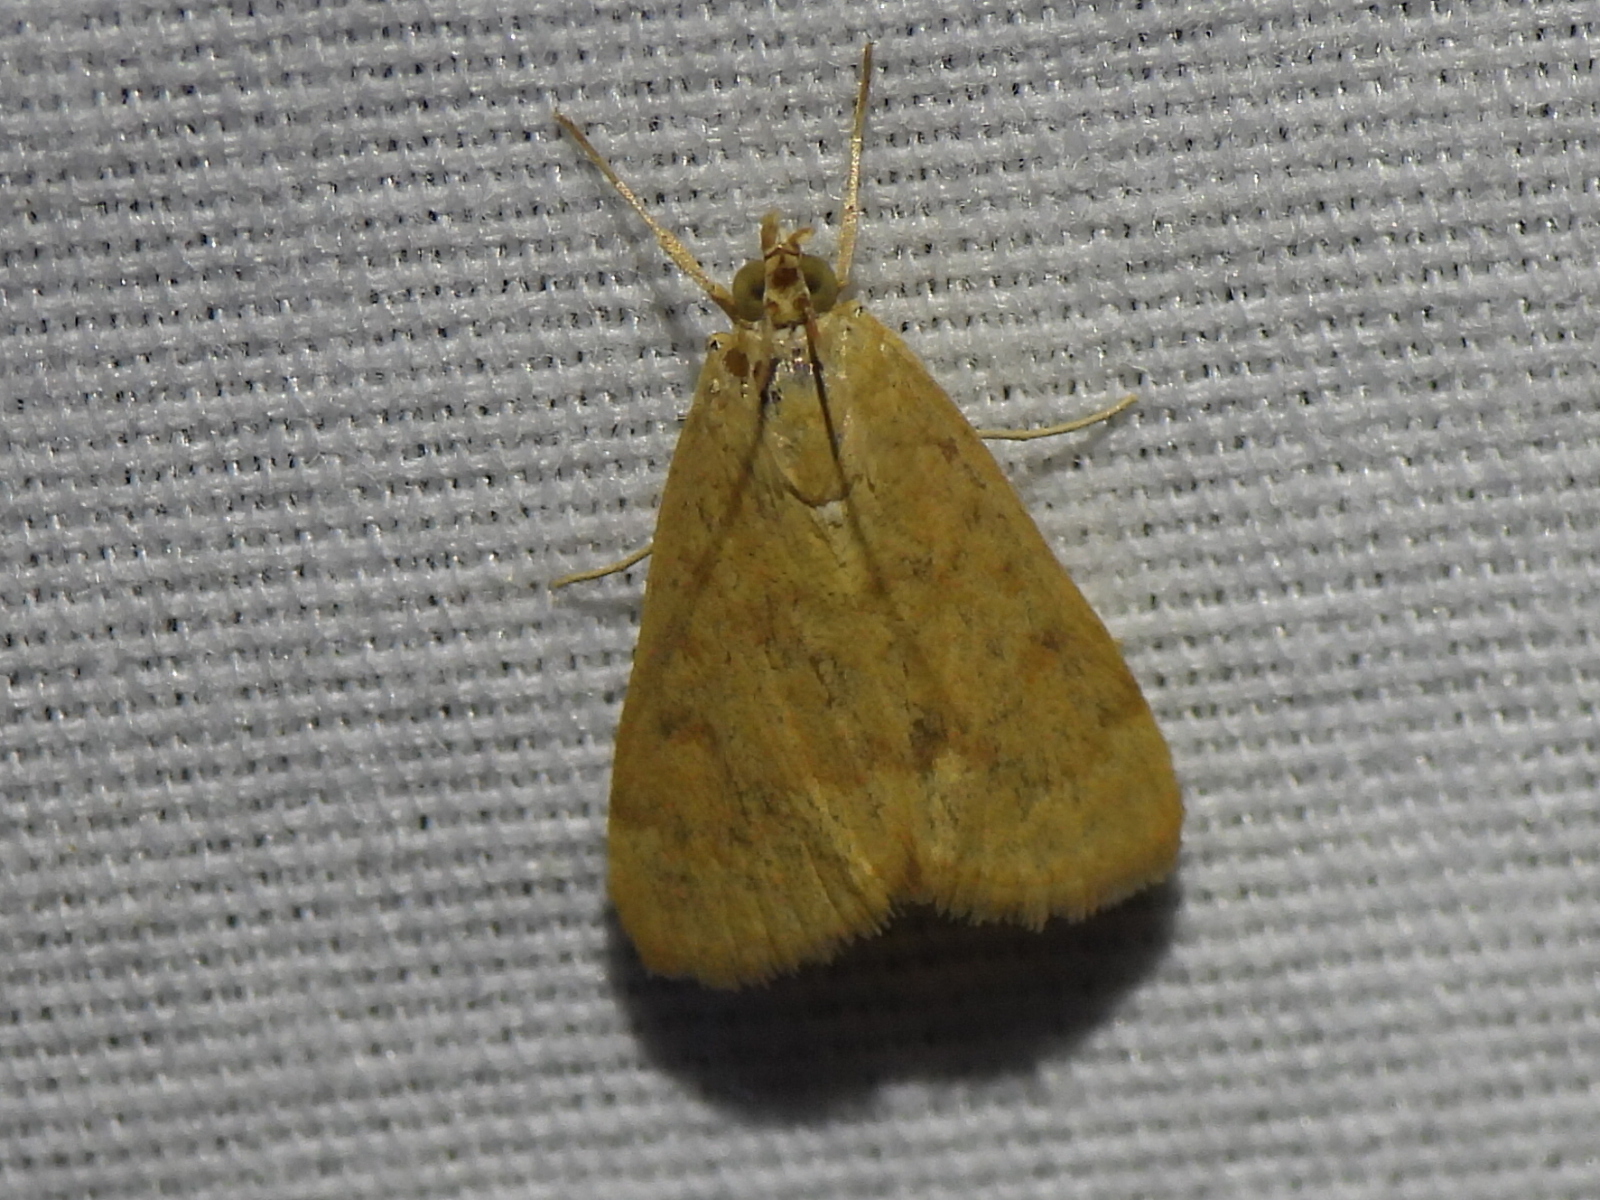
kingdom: Animalia
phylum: Arthropoda
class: Insecta
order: Lepidoptera
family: Crambidae
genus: Achyra
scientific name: Achyra rantalis
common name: Garden webworm
